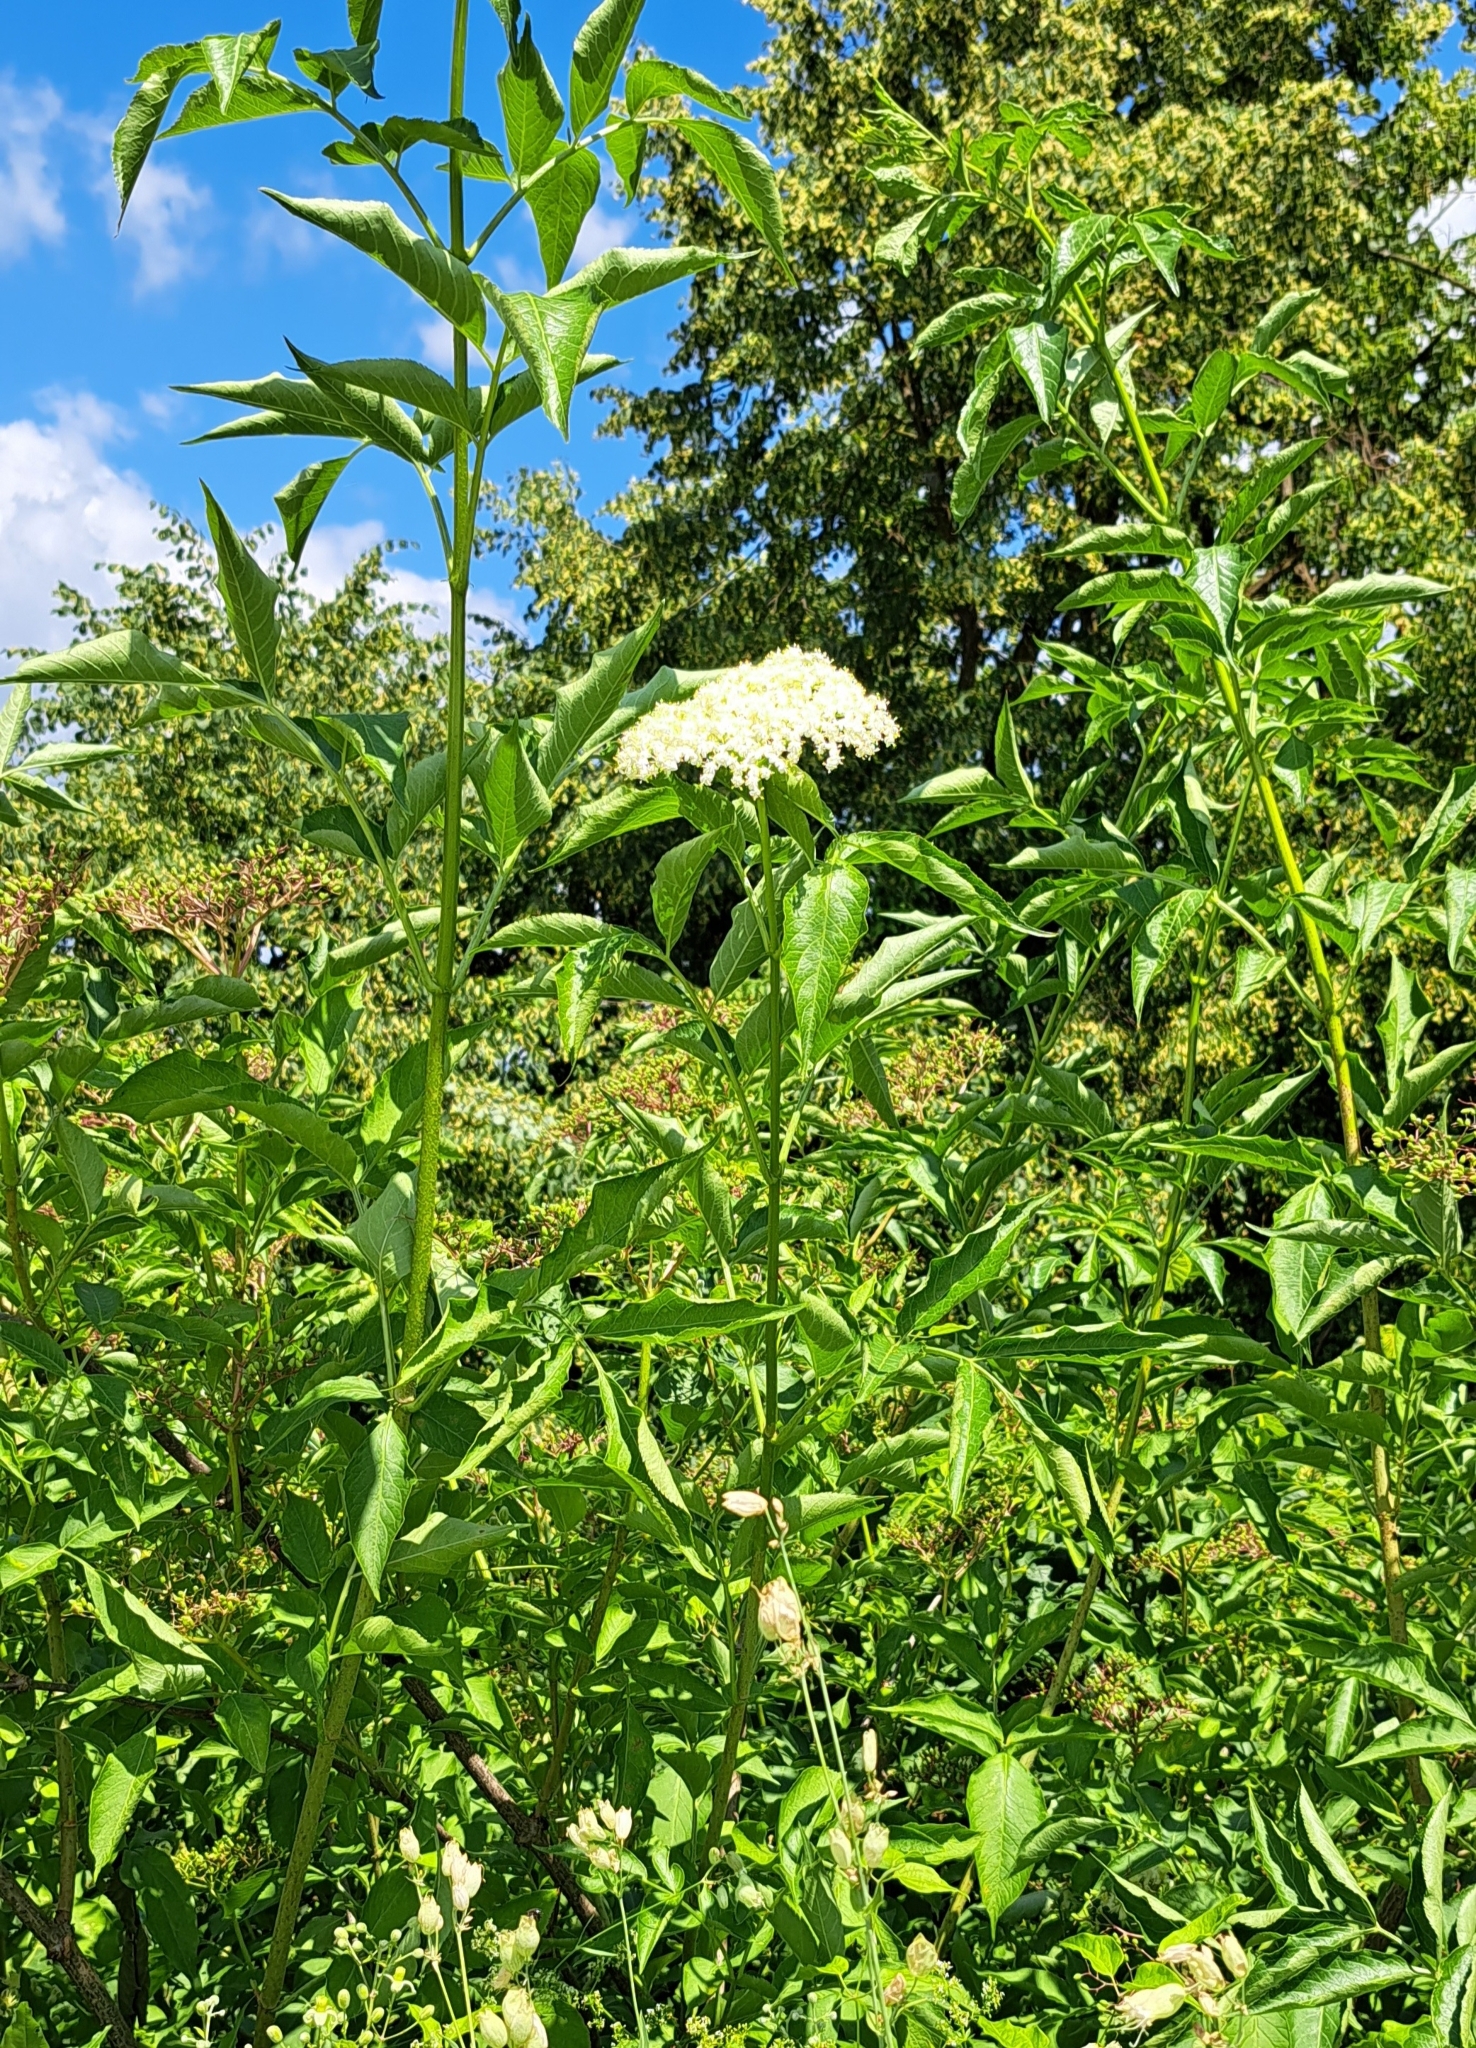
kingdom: Plantae
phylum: Tracheophyta
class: Magnoliopsida
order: Dipsacales
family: Viburnaceae
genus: Sambucus
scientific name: Sambucus nigra
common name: Elder
